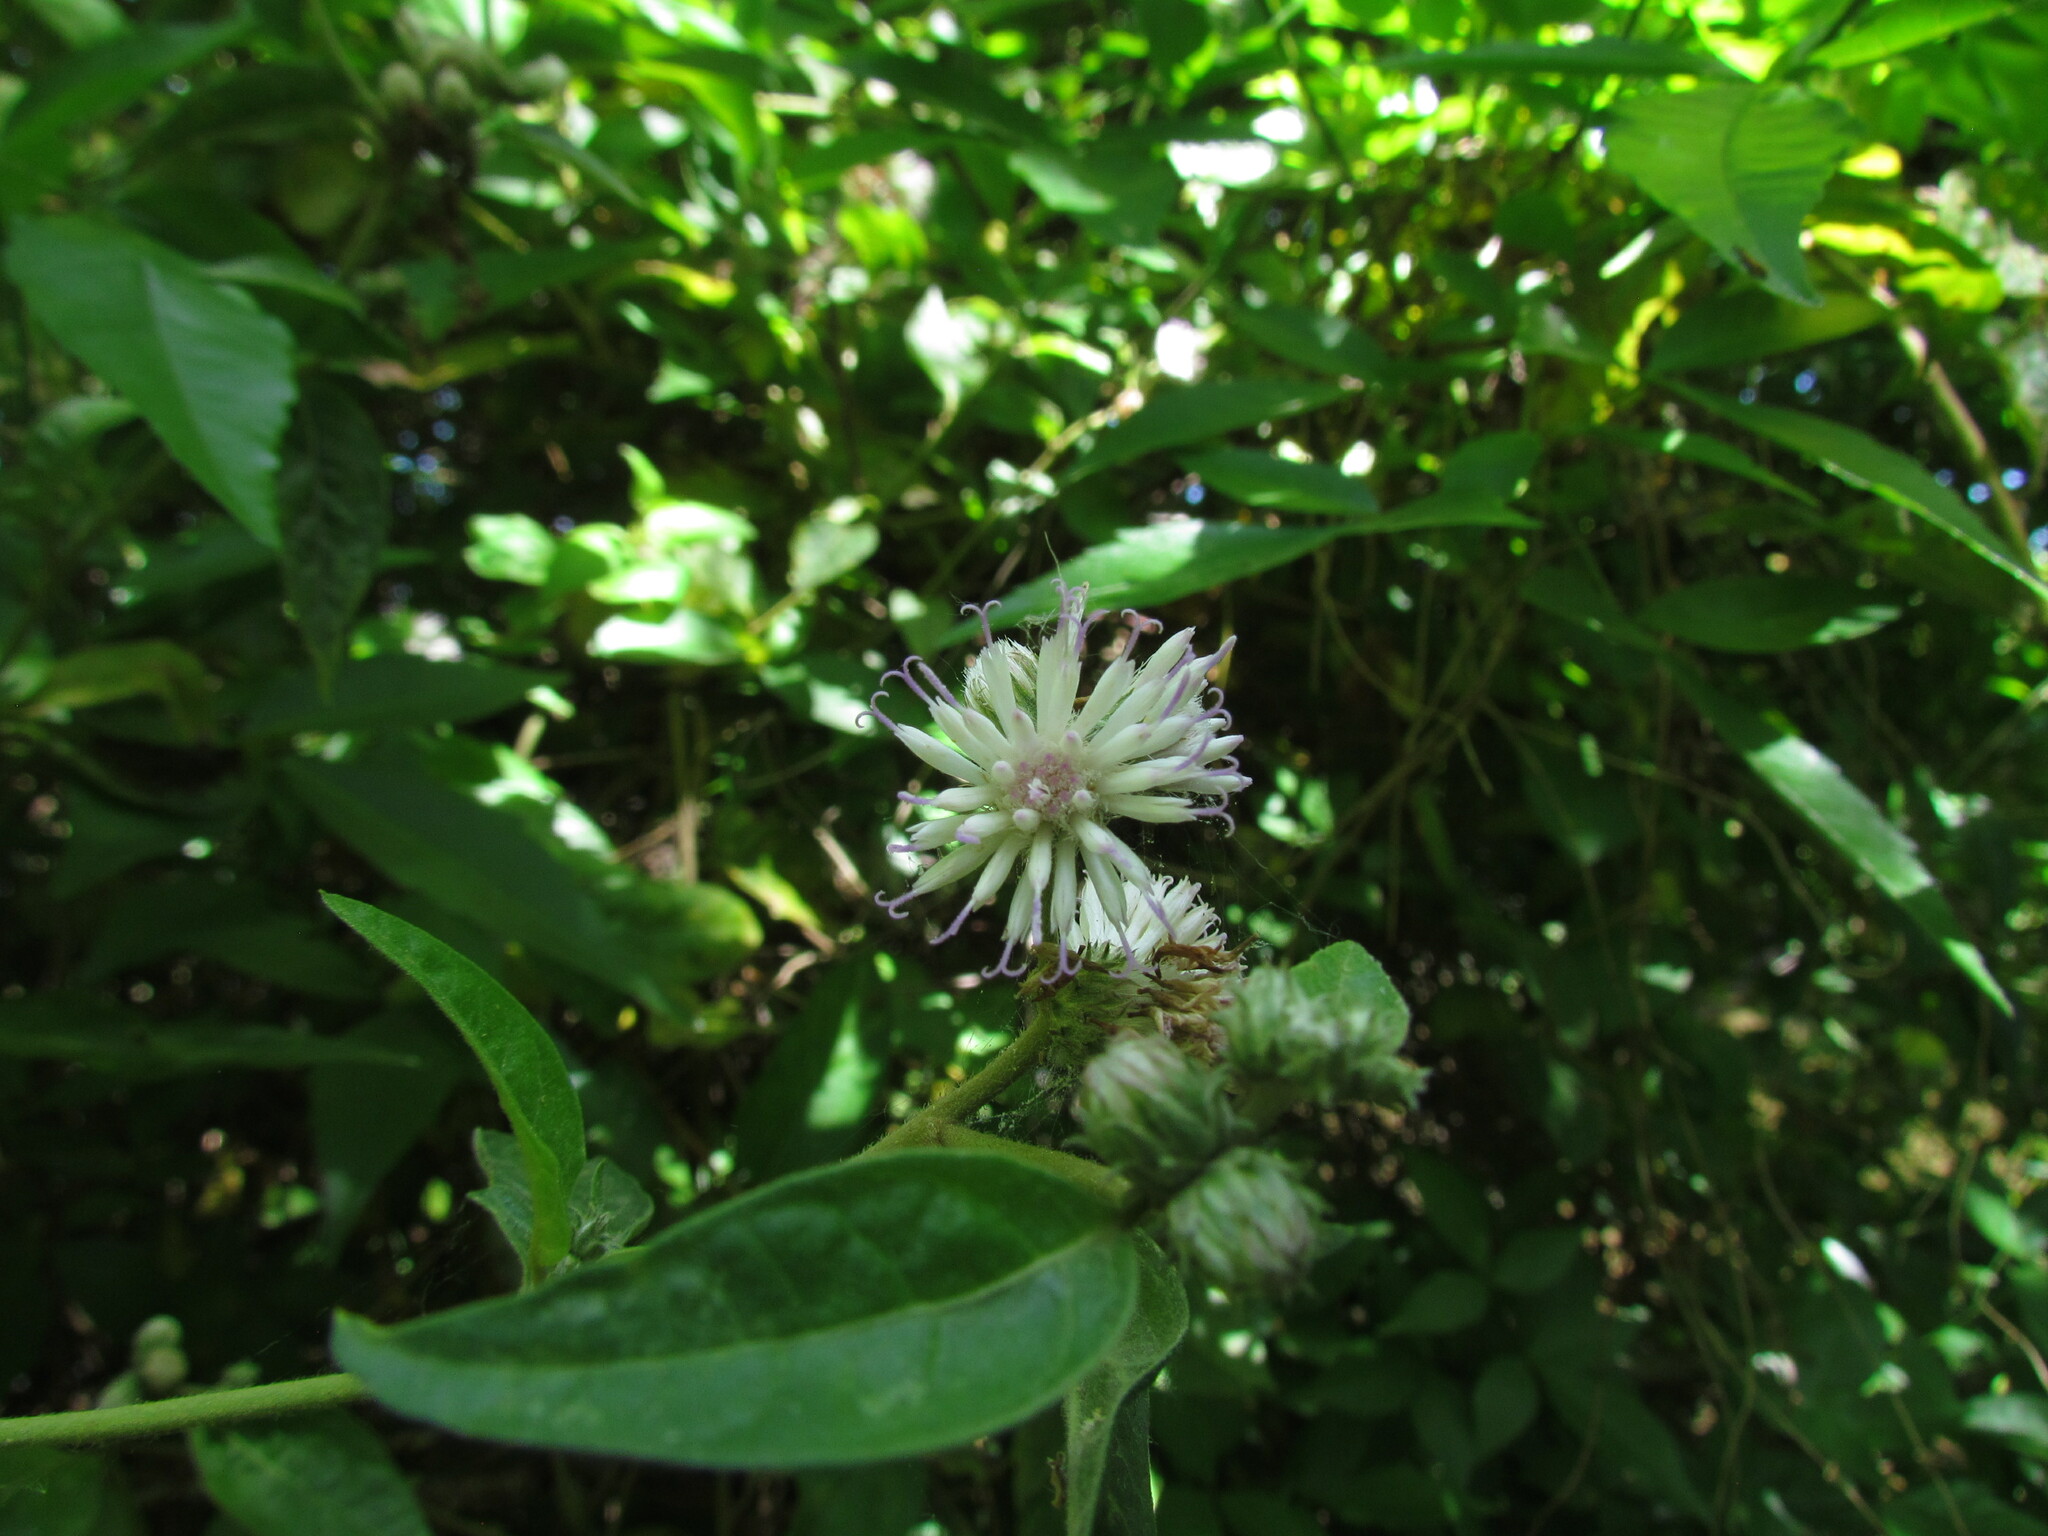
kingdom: Plantae
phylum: Tracheophyta
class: Magnoliopsida
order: Asterales
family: Asteraceae
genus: Cyrtocymura
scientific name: Cyrtocymura scorpioides
